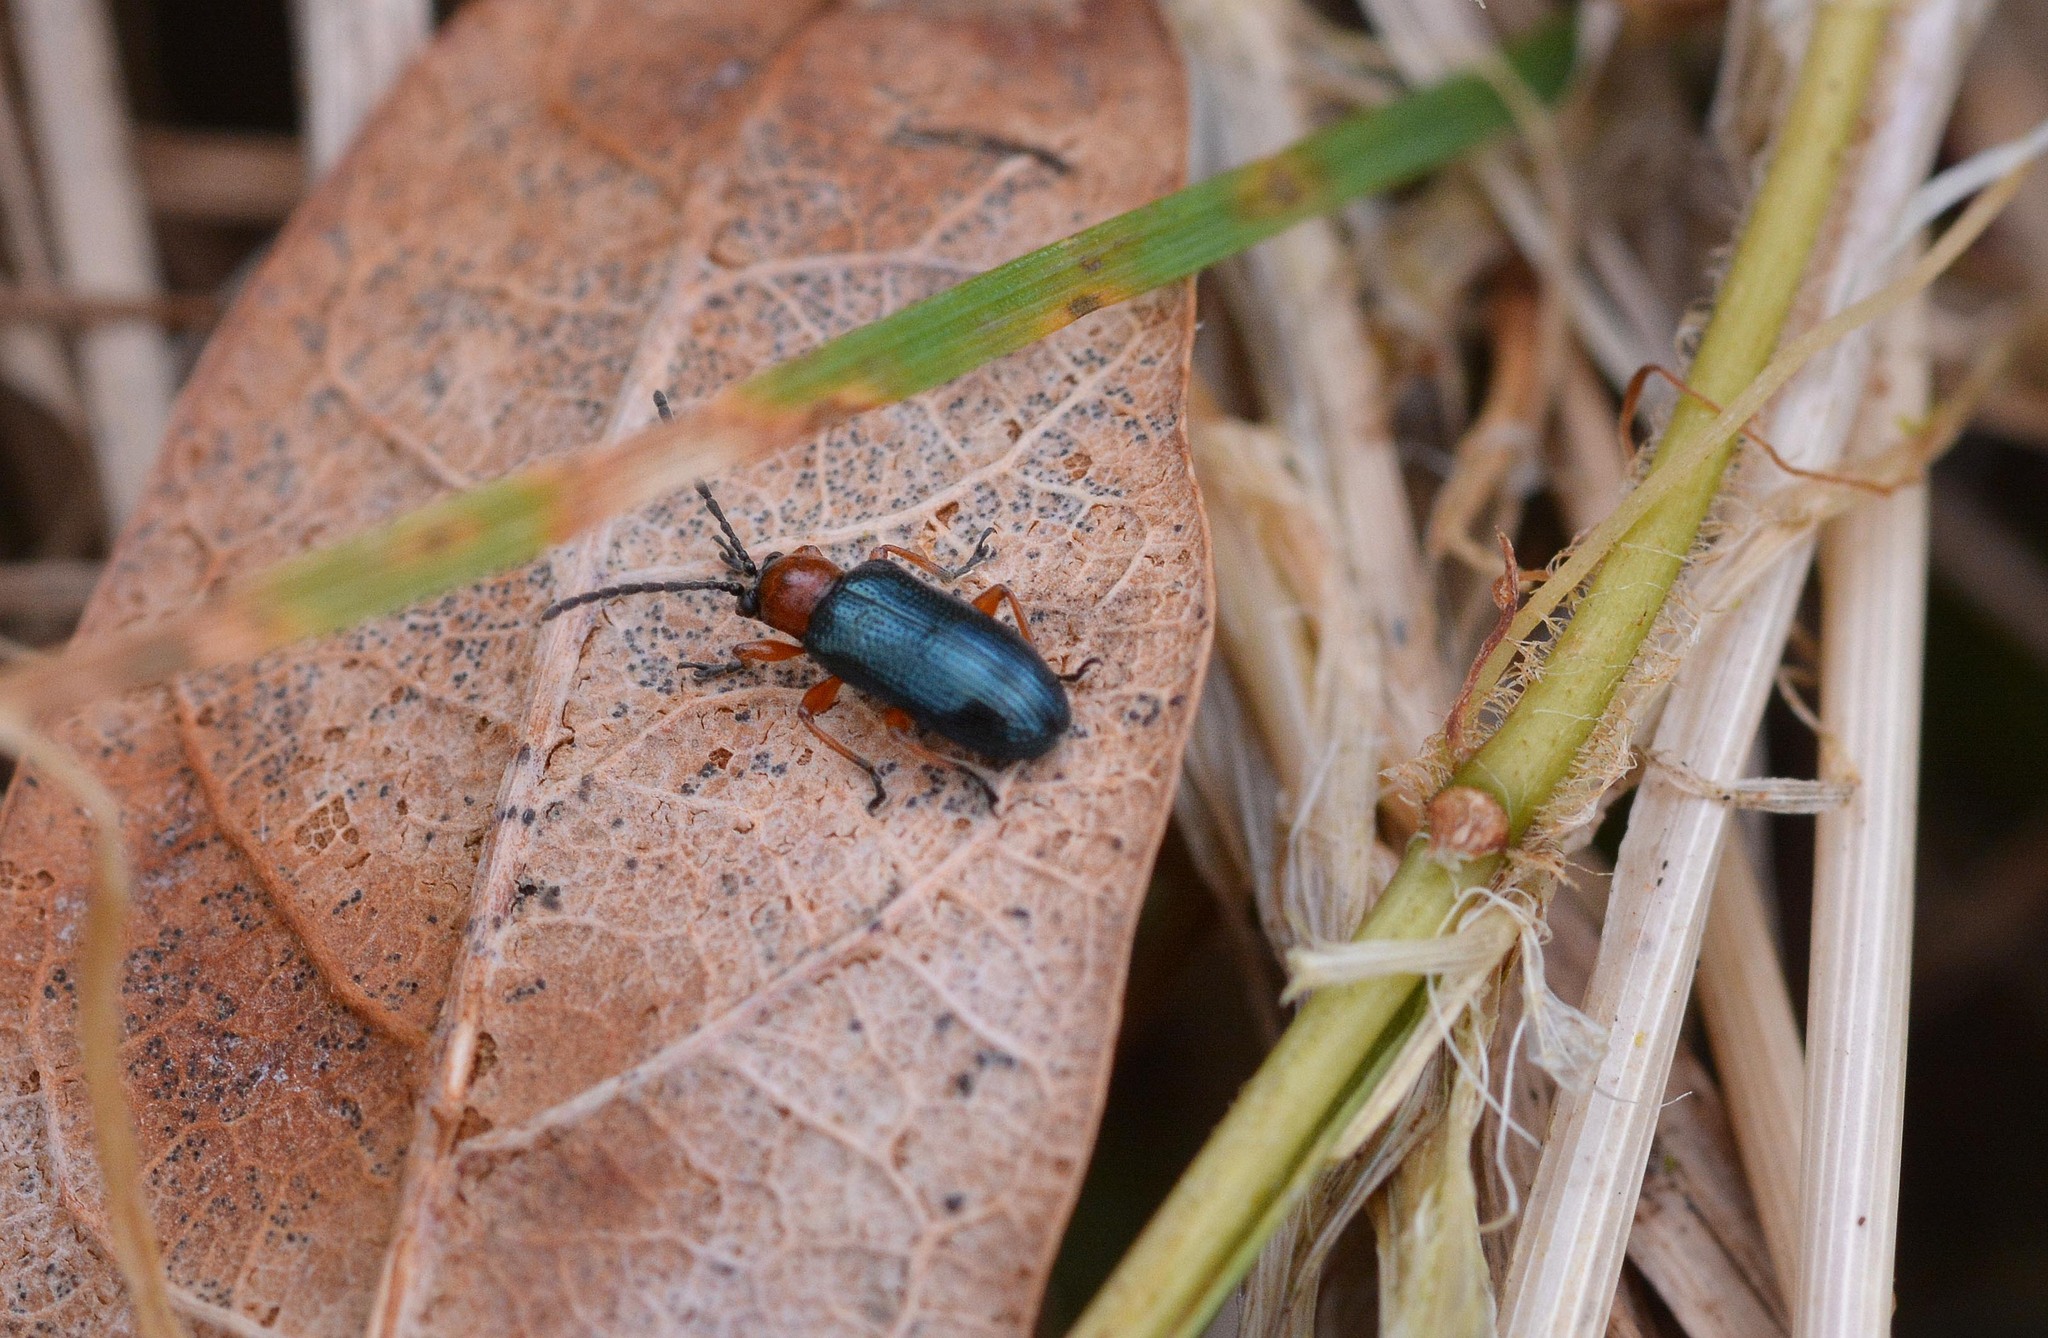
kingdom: Animalia
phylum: Arthropoda
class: Insecta
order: Coleoptera
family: Chrysomelidae
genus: Oulema
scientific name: Oulema
